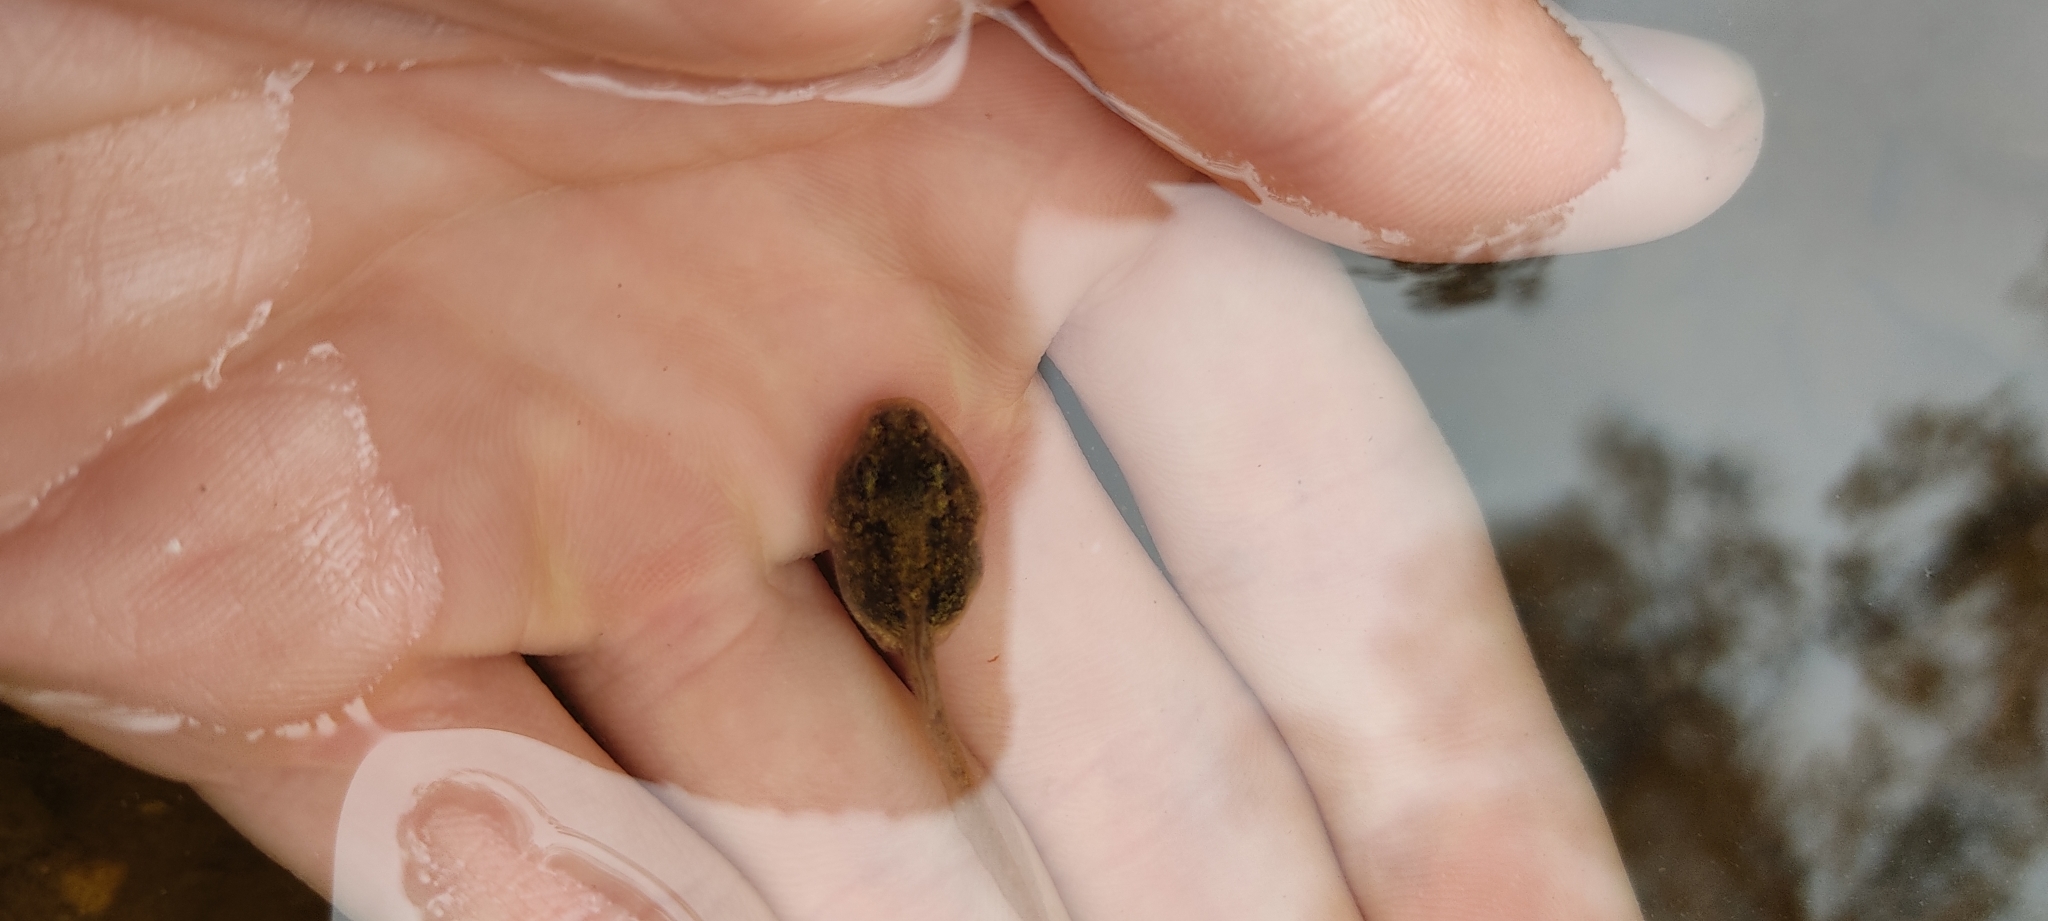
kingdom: Animalia
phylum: Chordata
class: Amphibia
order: Anura
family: Pelodytidae
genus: Pelodytes
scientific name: Pelodytes punctatus
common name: Parsley frog
